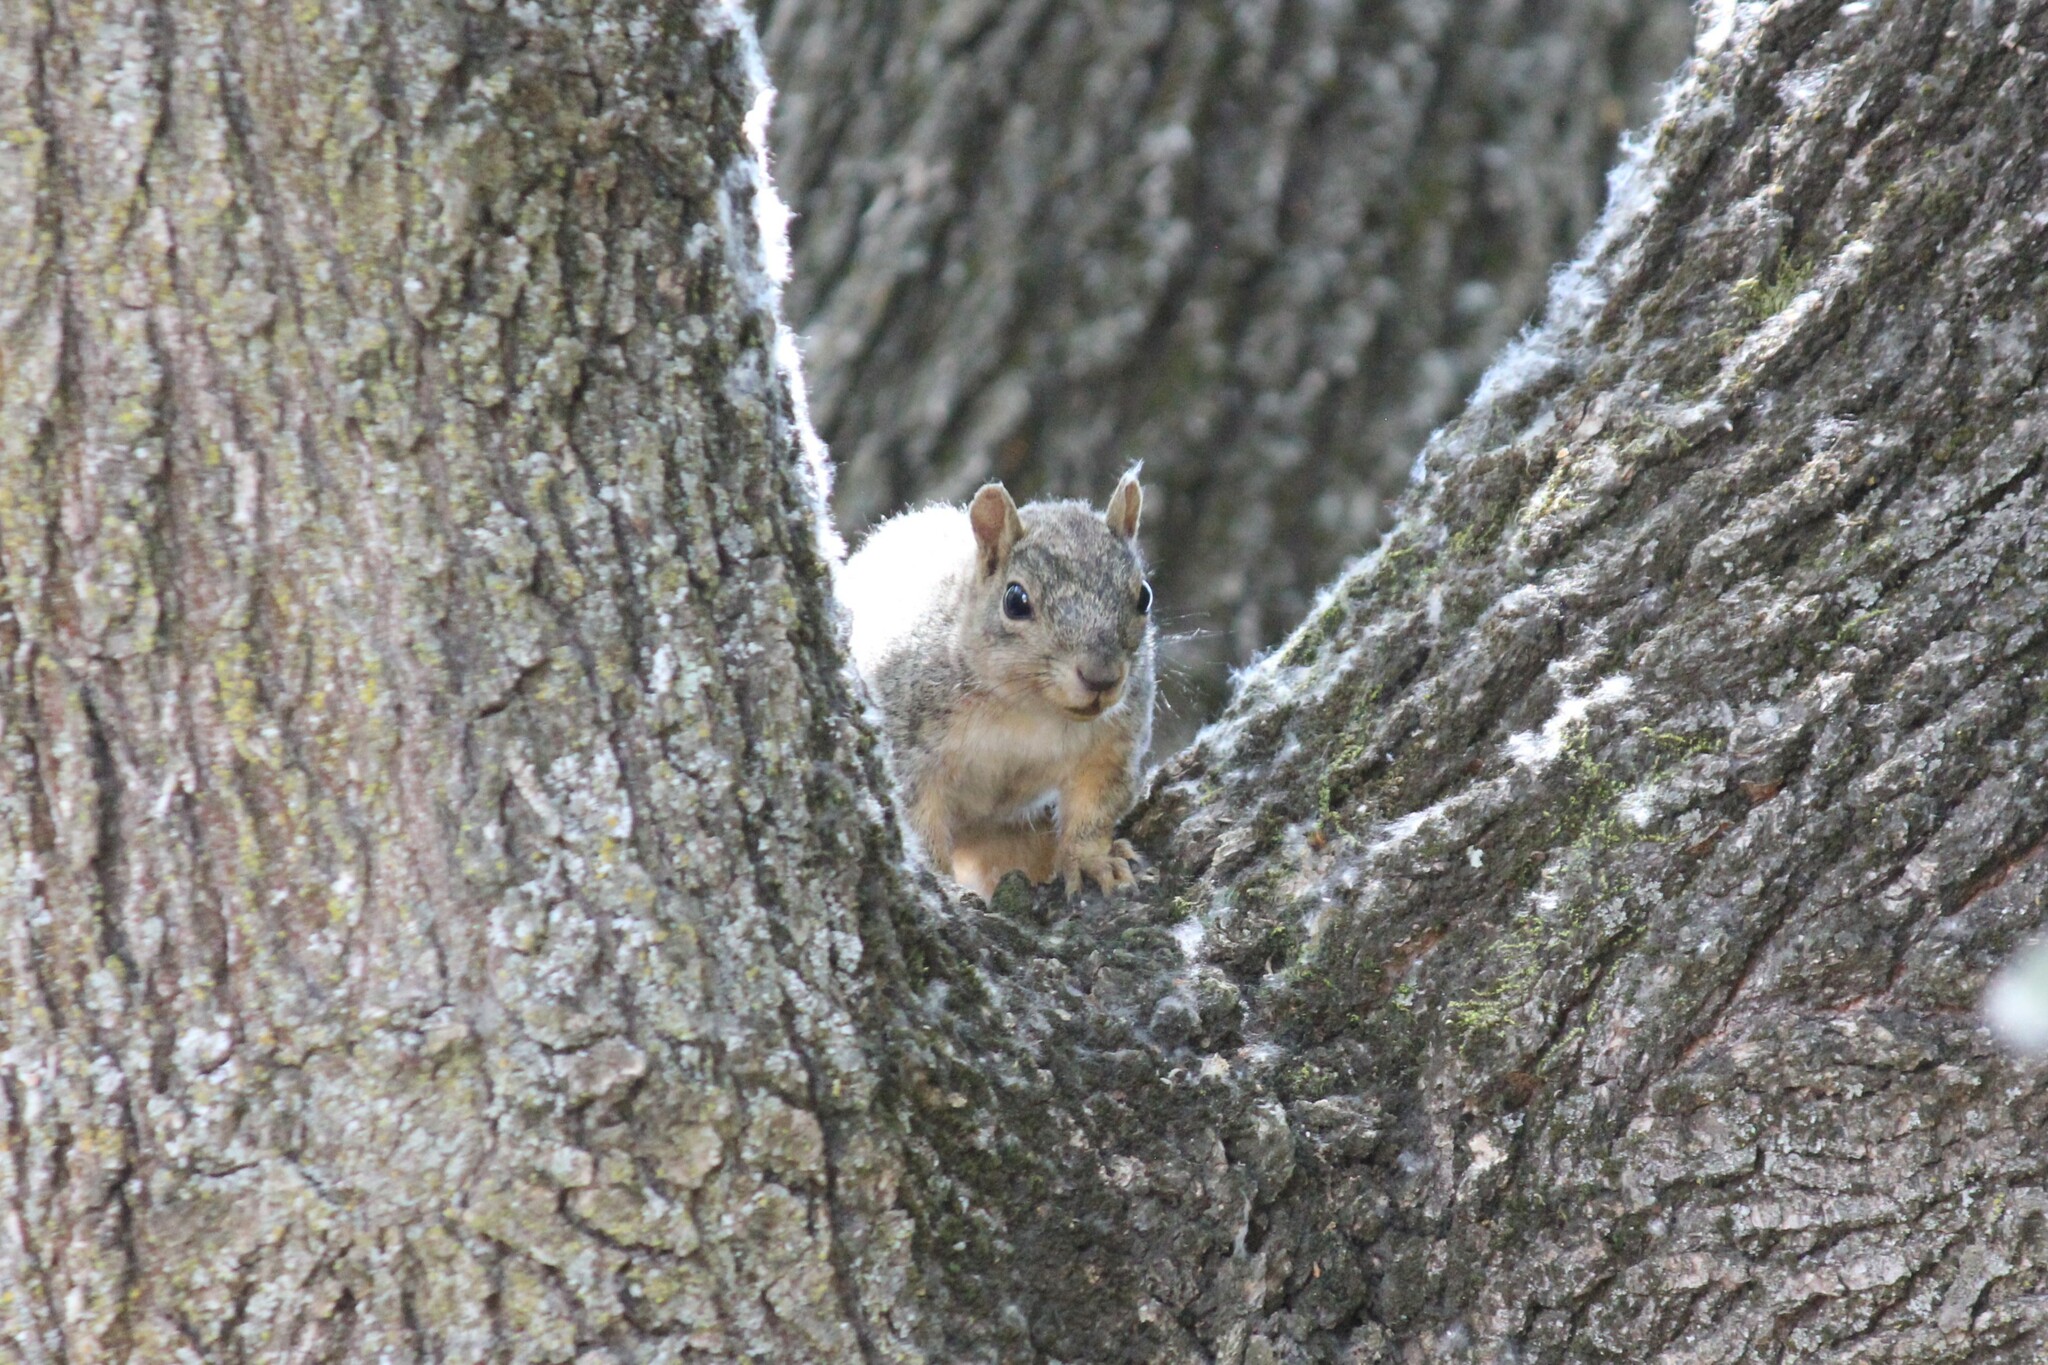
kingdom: Animalia
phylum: Chordata
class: Mammalia
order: Rodentia
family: Sciuridae
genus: Sciurus
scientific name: Sciurus niger
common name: Fox squirrel
